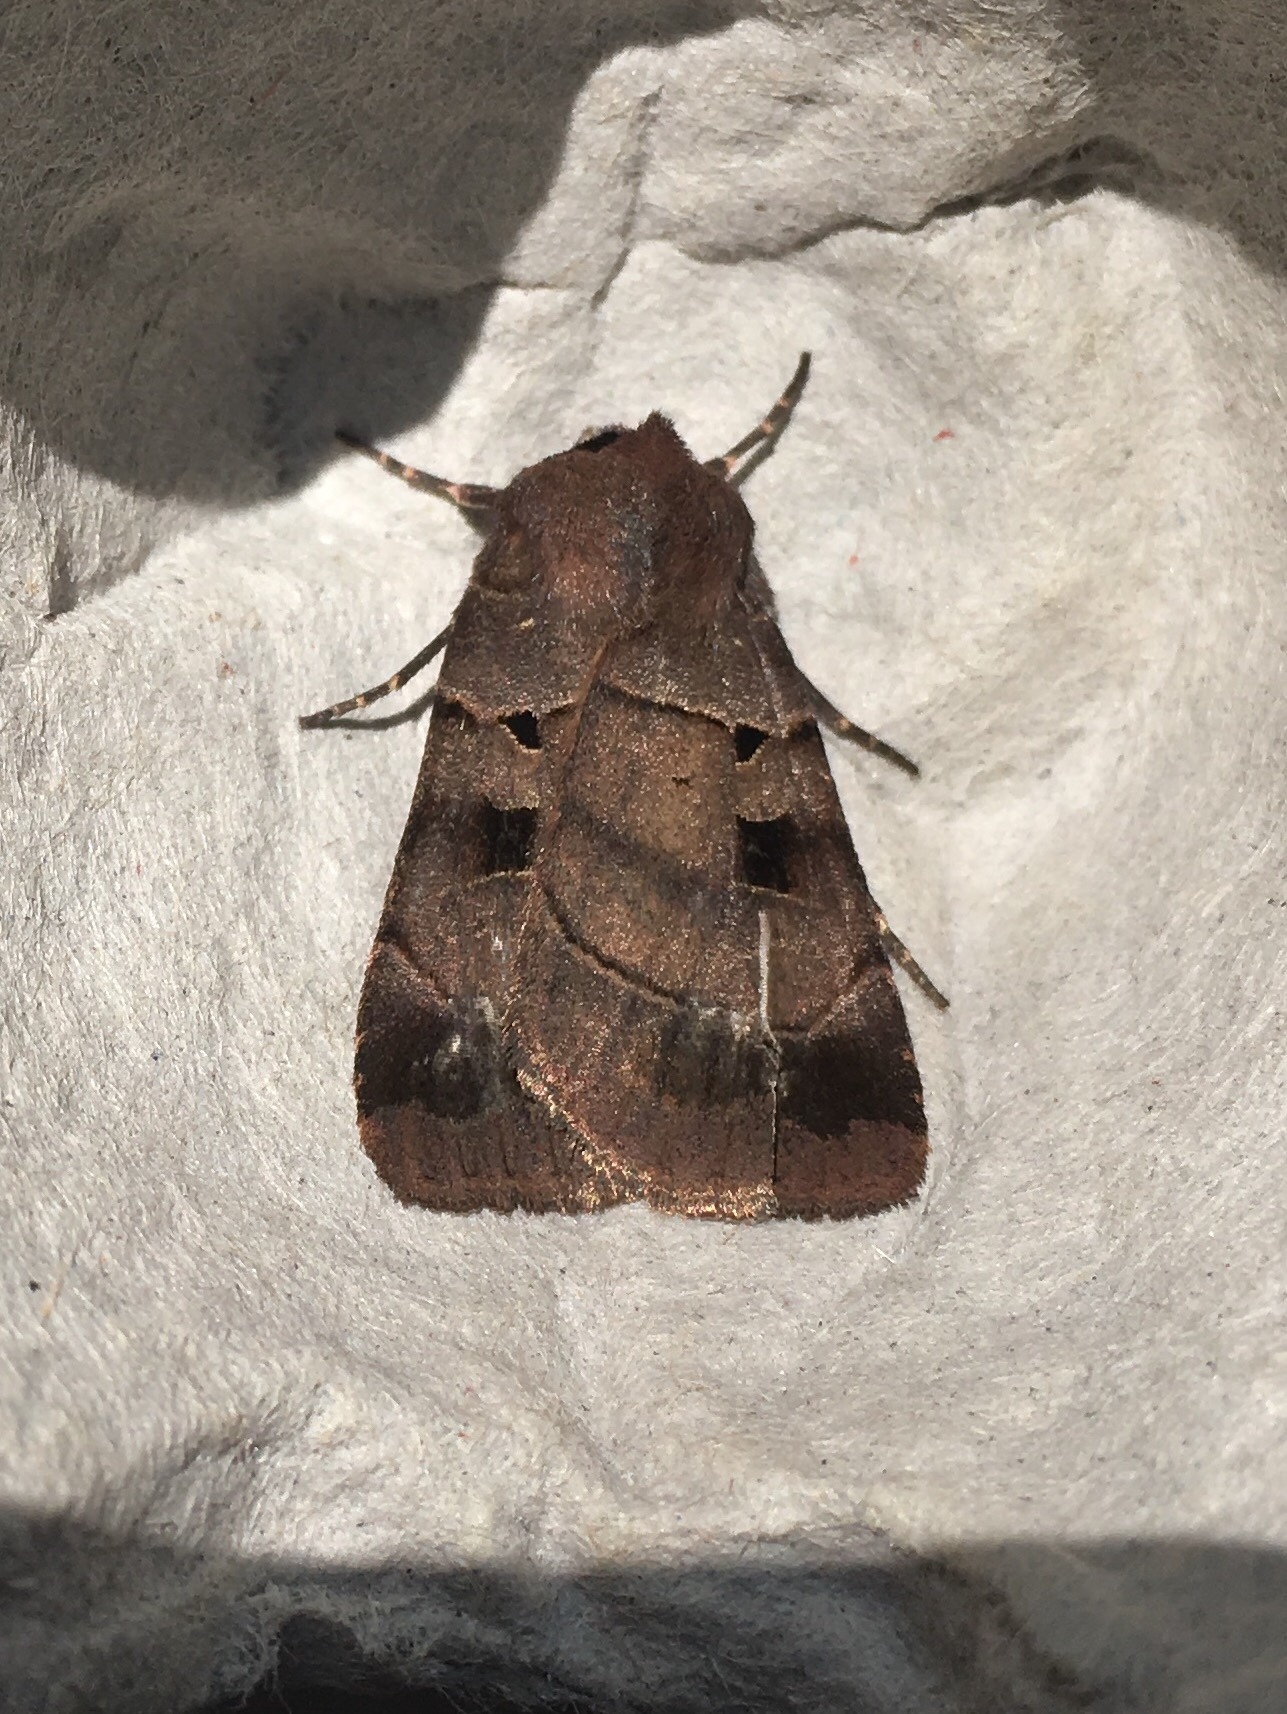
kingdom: Animalia
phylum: Arthropoda
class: Insecta
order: Lepidoptera
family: Noctuidae
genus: Agnorisma
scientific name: Agnorisma badinodis
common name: Pale-banded dart
